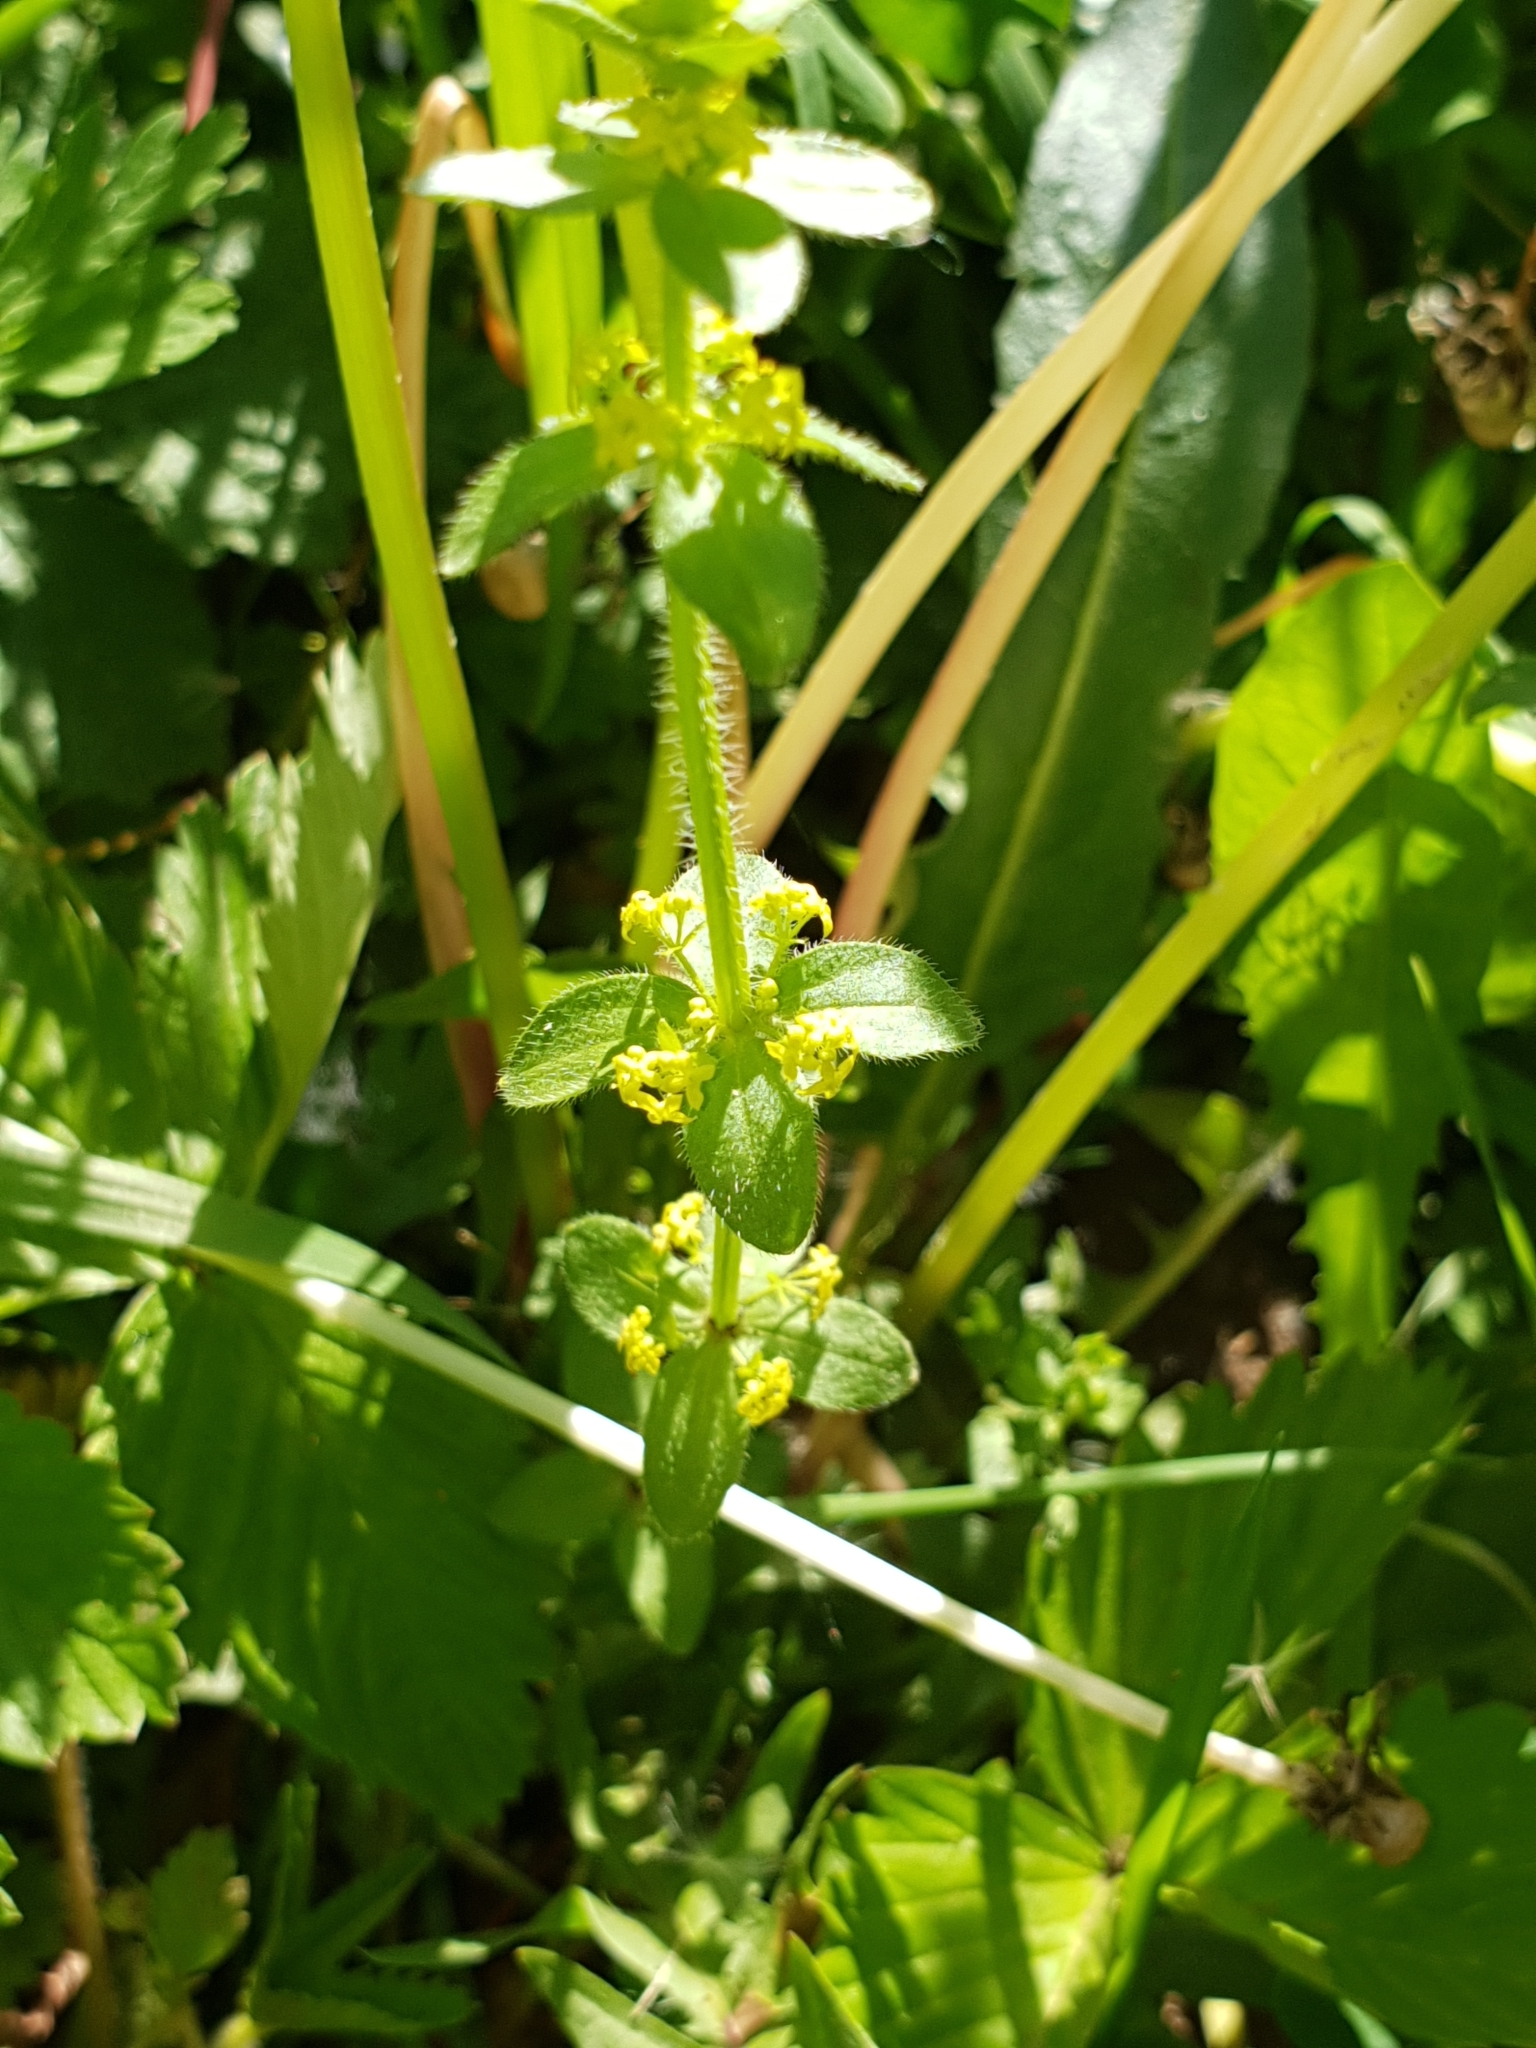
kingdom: Plantae
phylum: Tracheophyta
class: Magnoliopsida
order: Gentianales
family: Rubiaceae
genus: Cruciata
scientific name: Cruciata laevipes
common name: Crosswort
